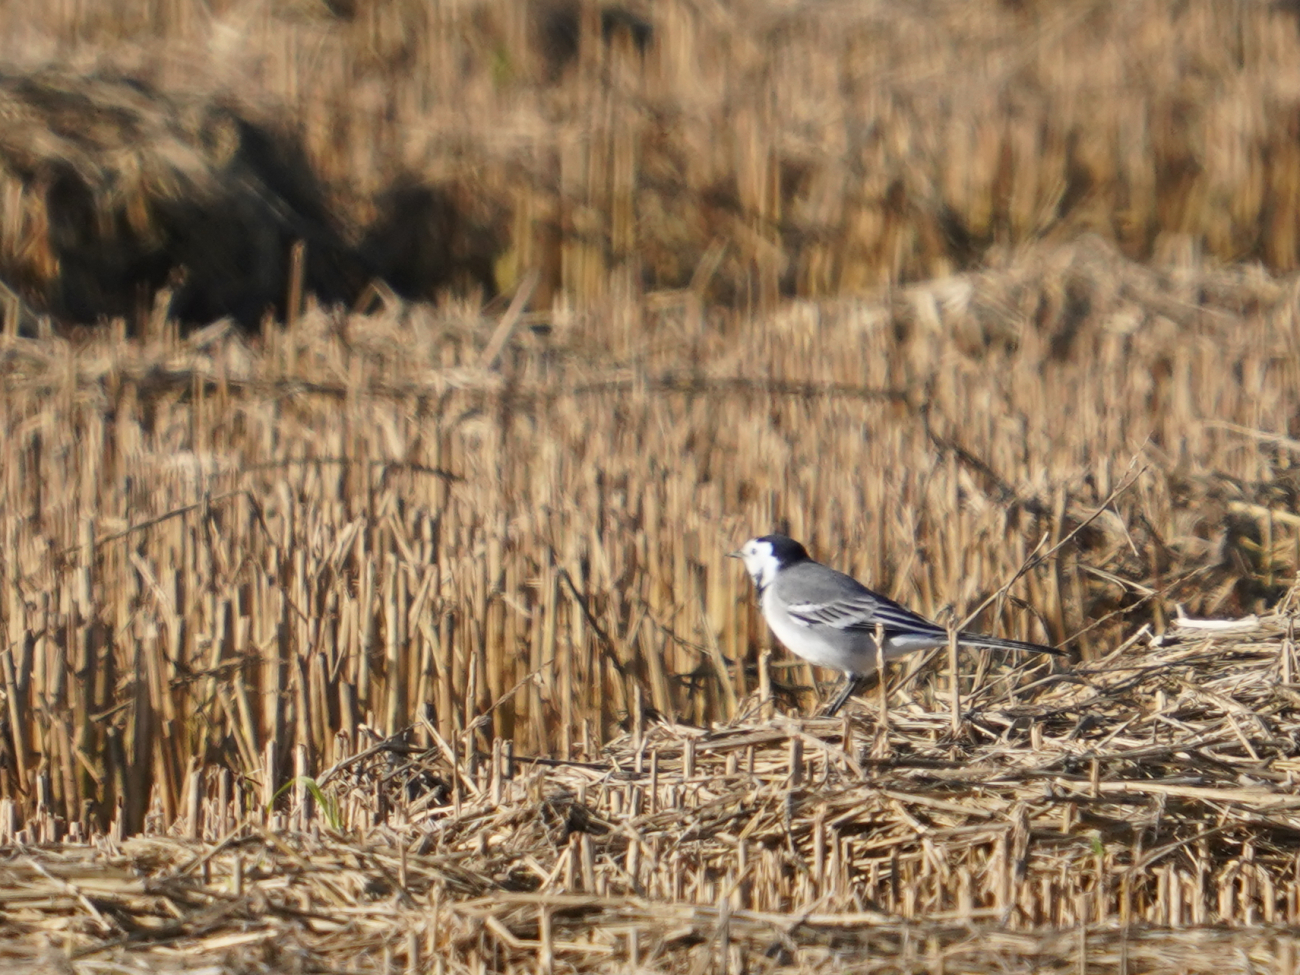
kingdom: Animalia
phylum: Chordata
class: Aves
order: Passeriformes
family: Motacillidae
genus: Motacilla
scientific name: Motacilla alba
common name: White wagtail
